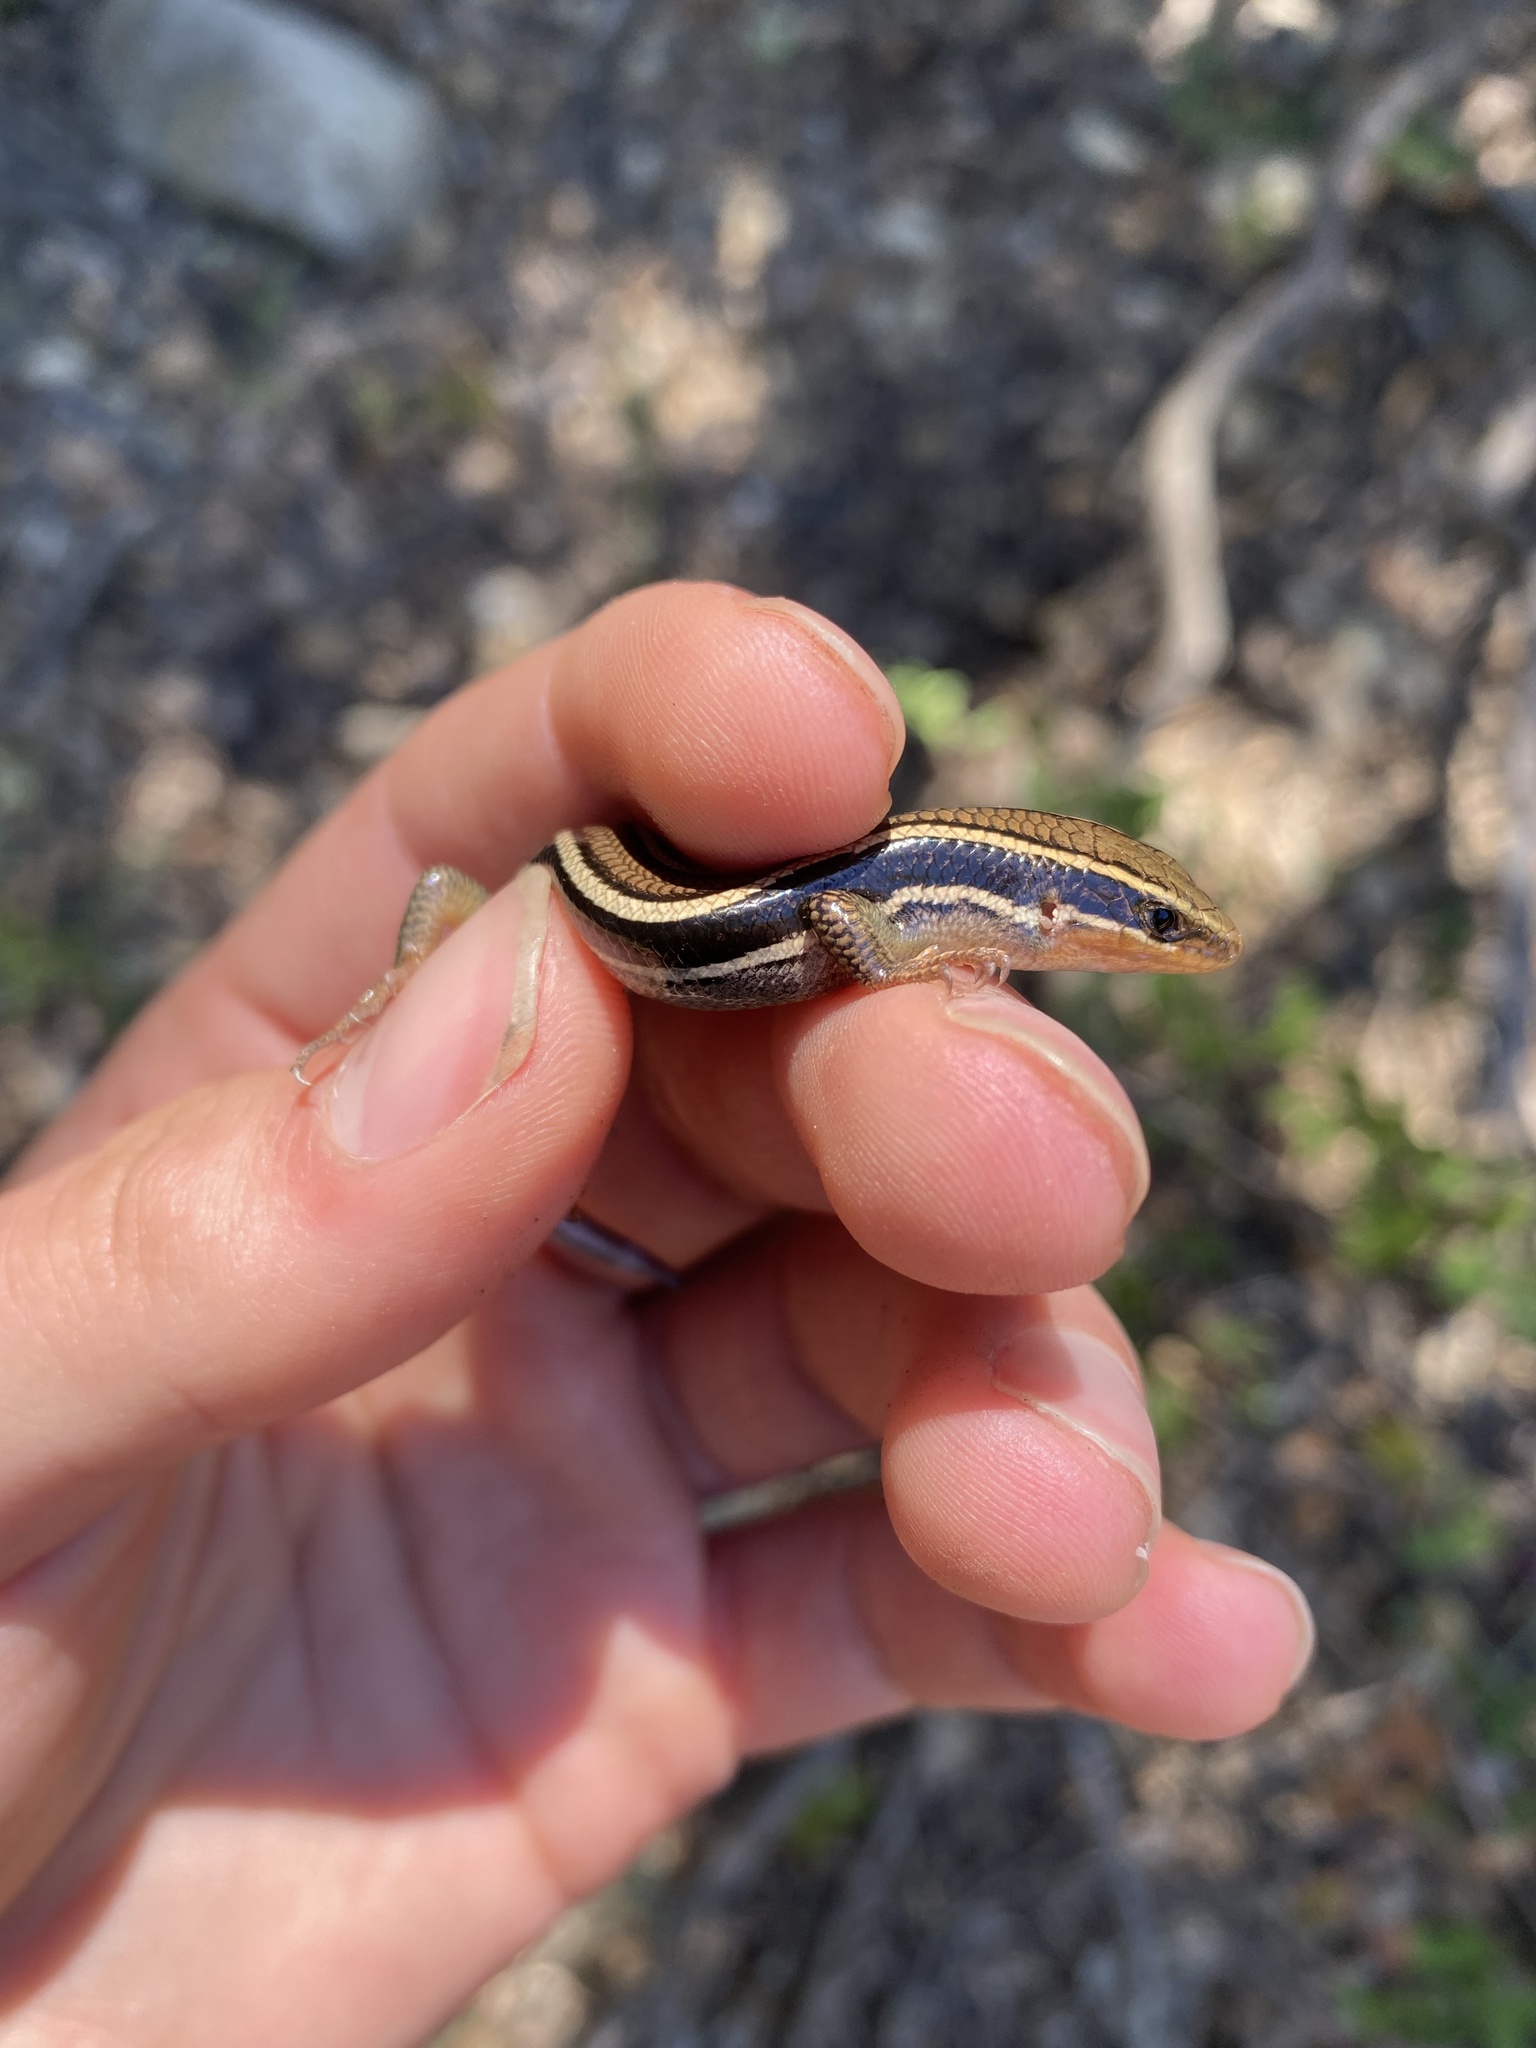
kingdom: Animalia
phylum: Chordata
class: Squamata
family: Scincidae
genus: Plestiodon
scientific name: Plestiodon skiltonianus
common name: Coronado island skink [interparietalis]
